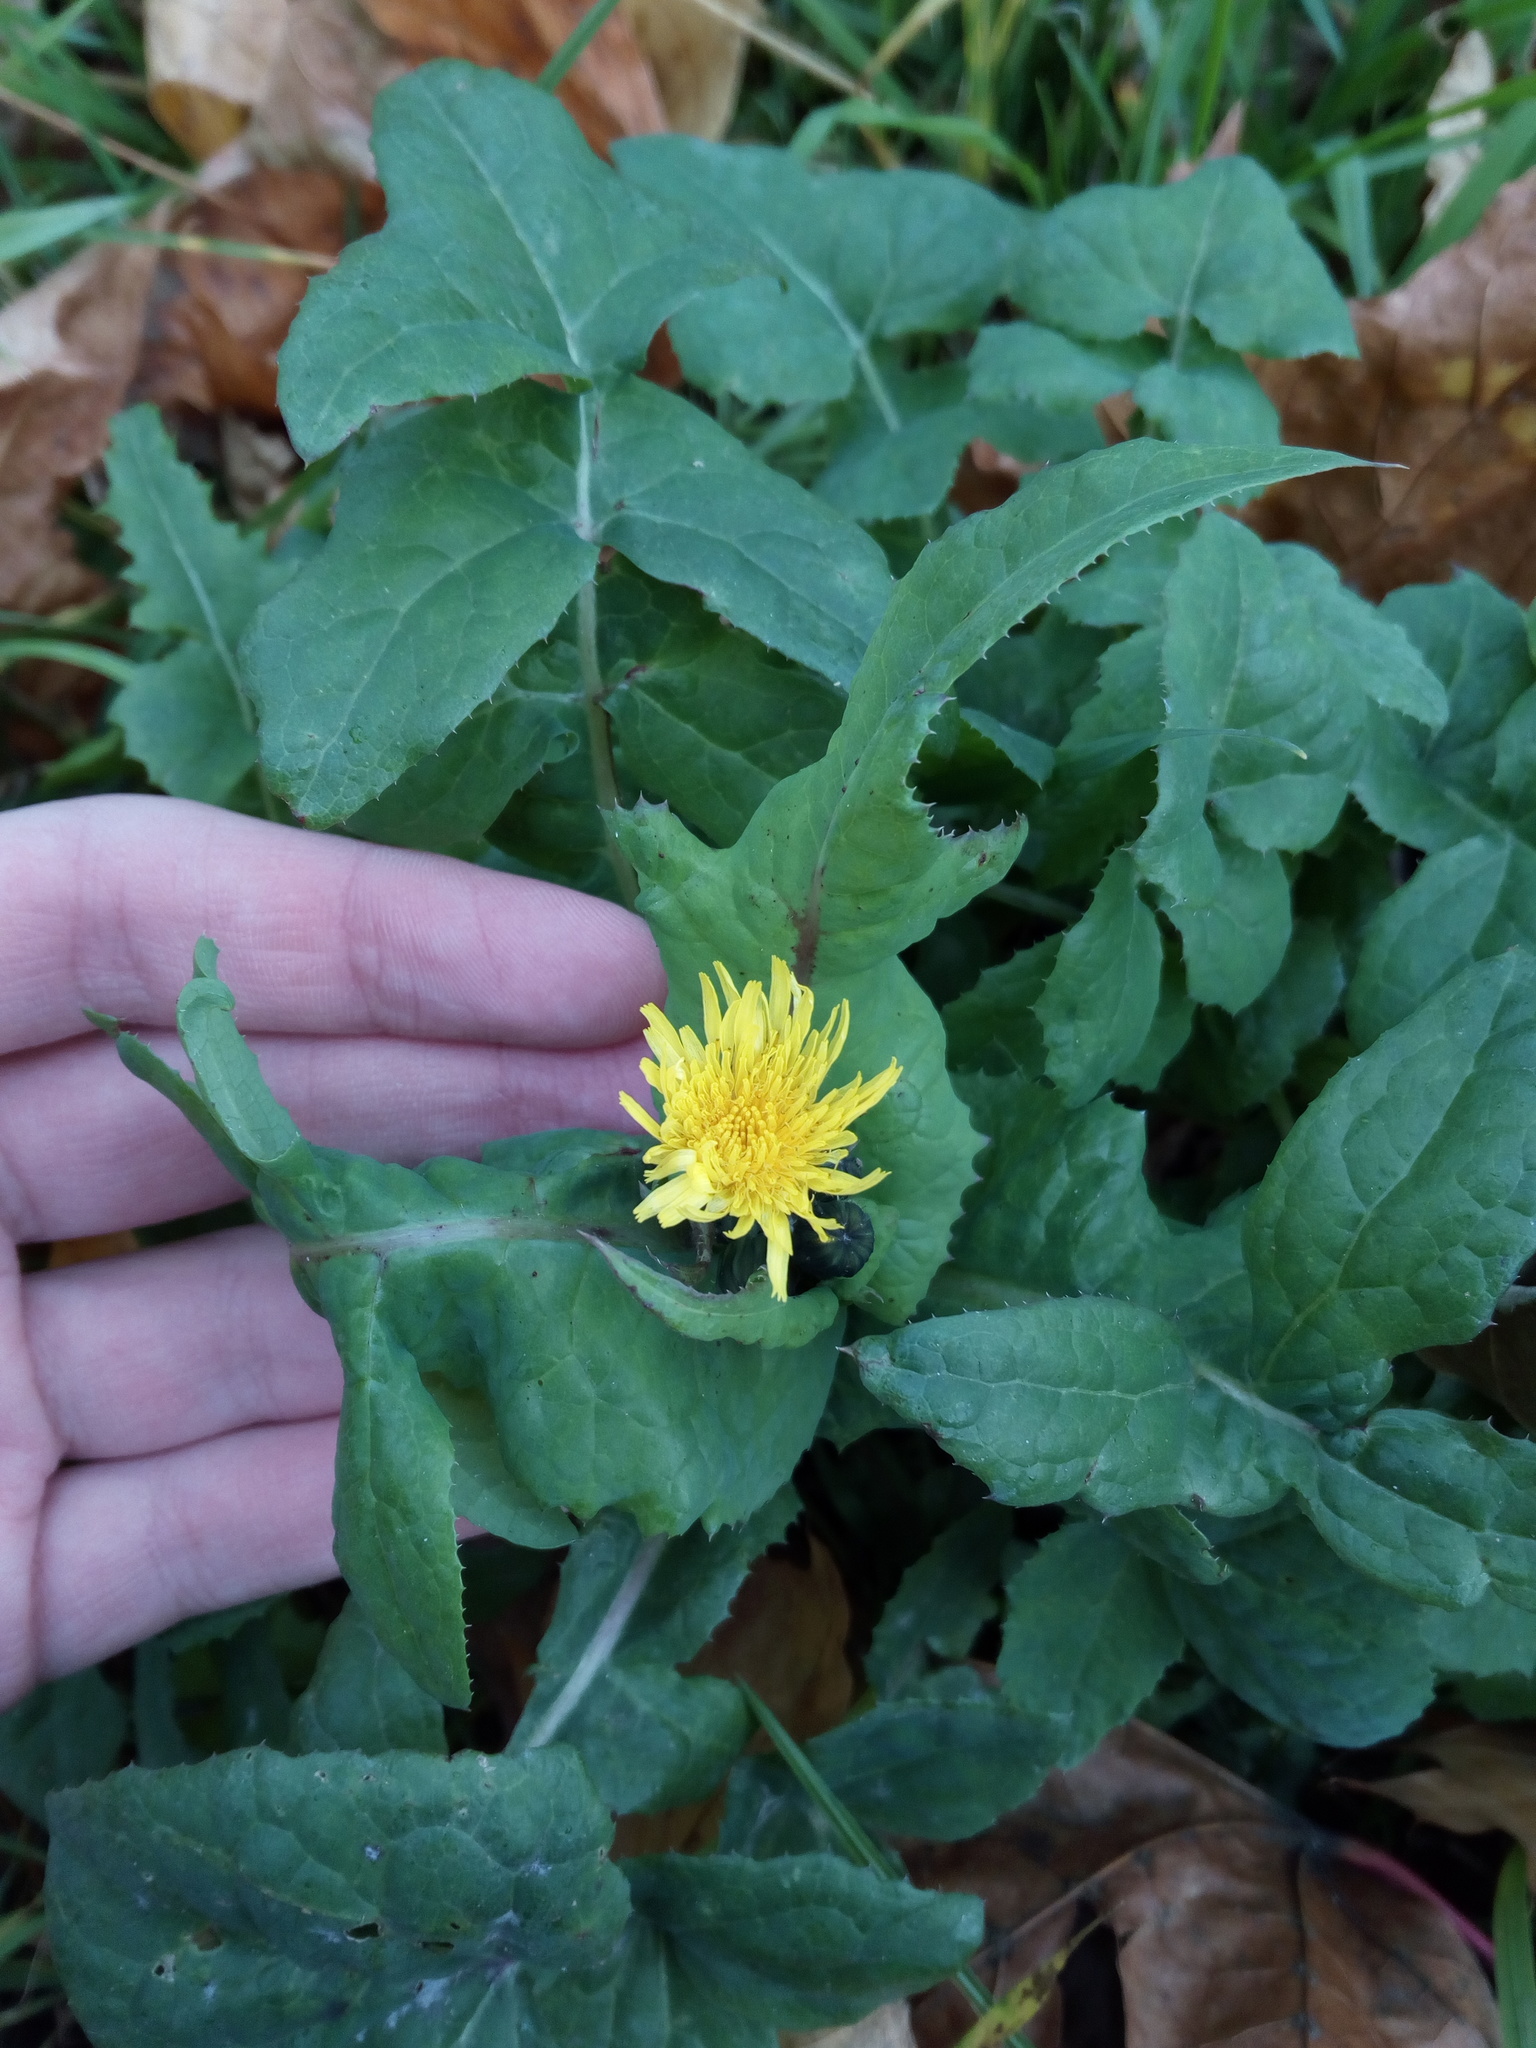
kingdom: Plantae
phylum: Tracheophyta
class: Magnoliopsida
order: Asterales
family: Asteraceae
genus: Sonchus
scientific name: Sonchus oleraceus
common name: Common sowthistle
